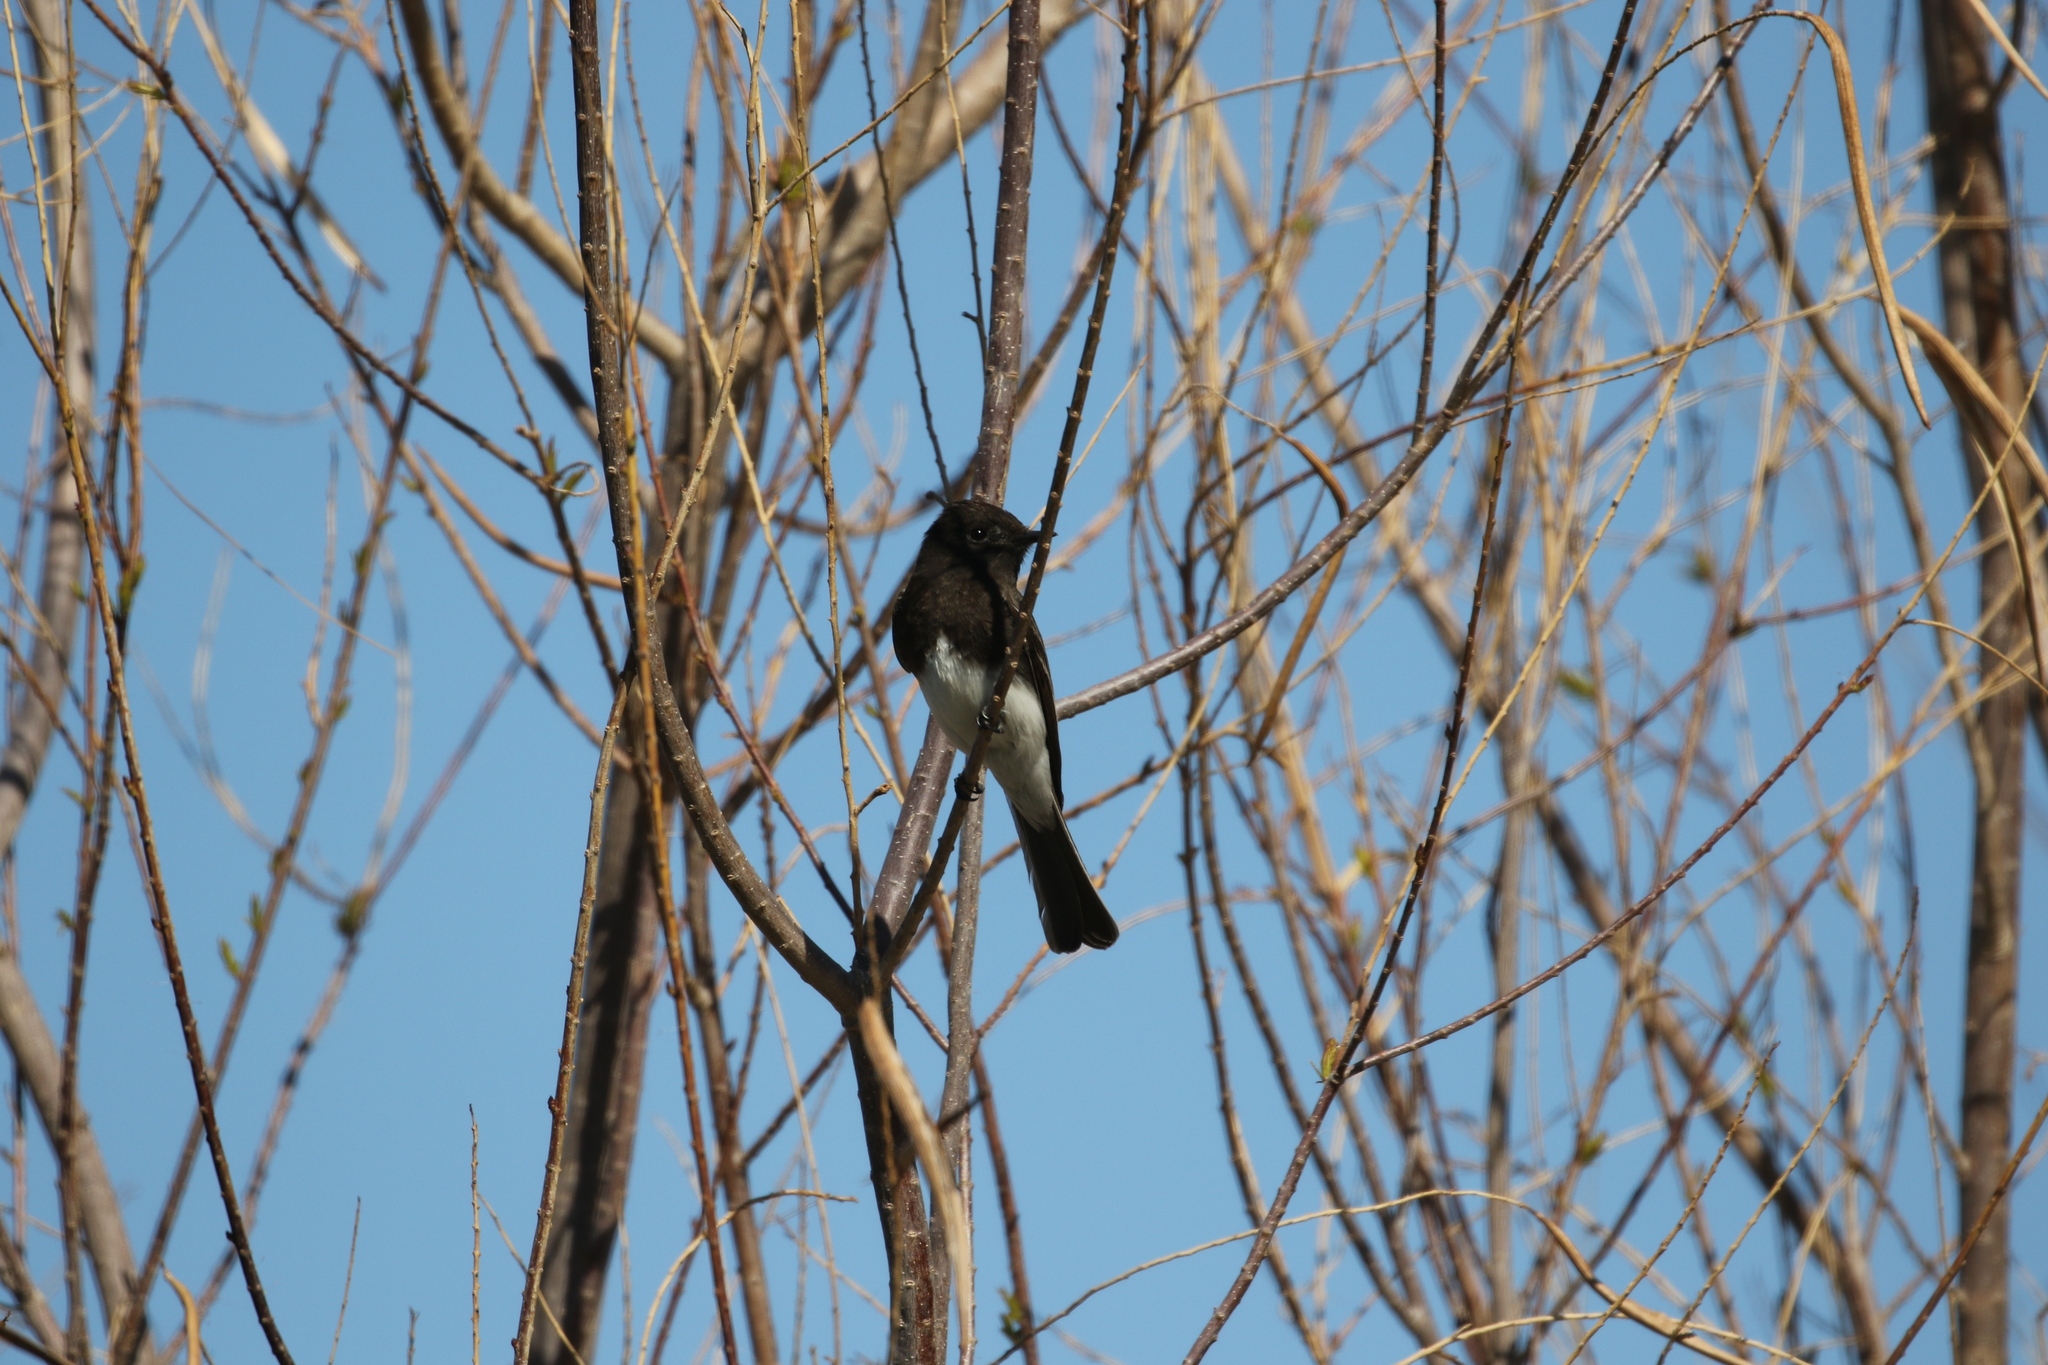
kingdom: Animalia
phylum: Chordata
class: Aves
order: Passeriformes
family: Tyrannidae
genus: Sayornis
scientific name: Sayornis nigricans
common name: Black phoebe
